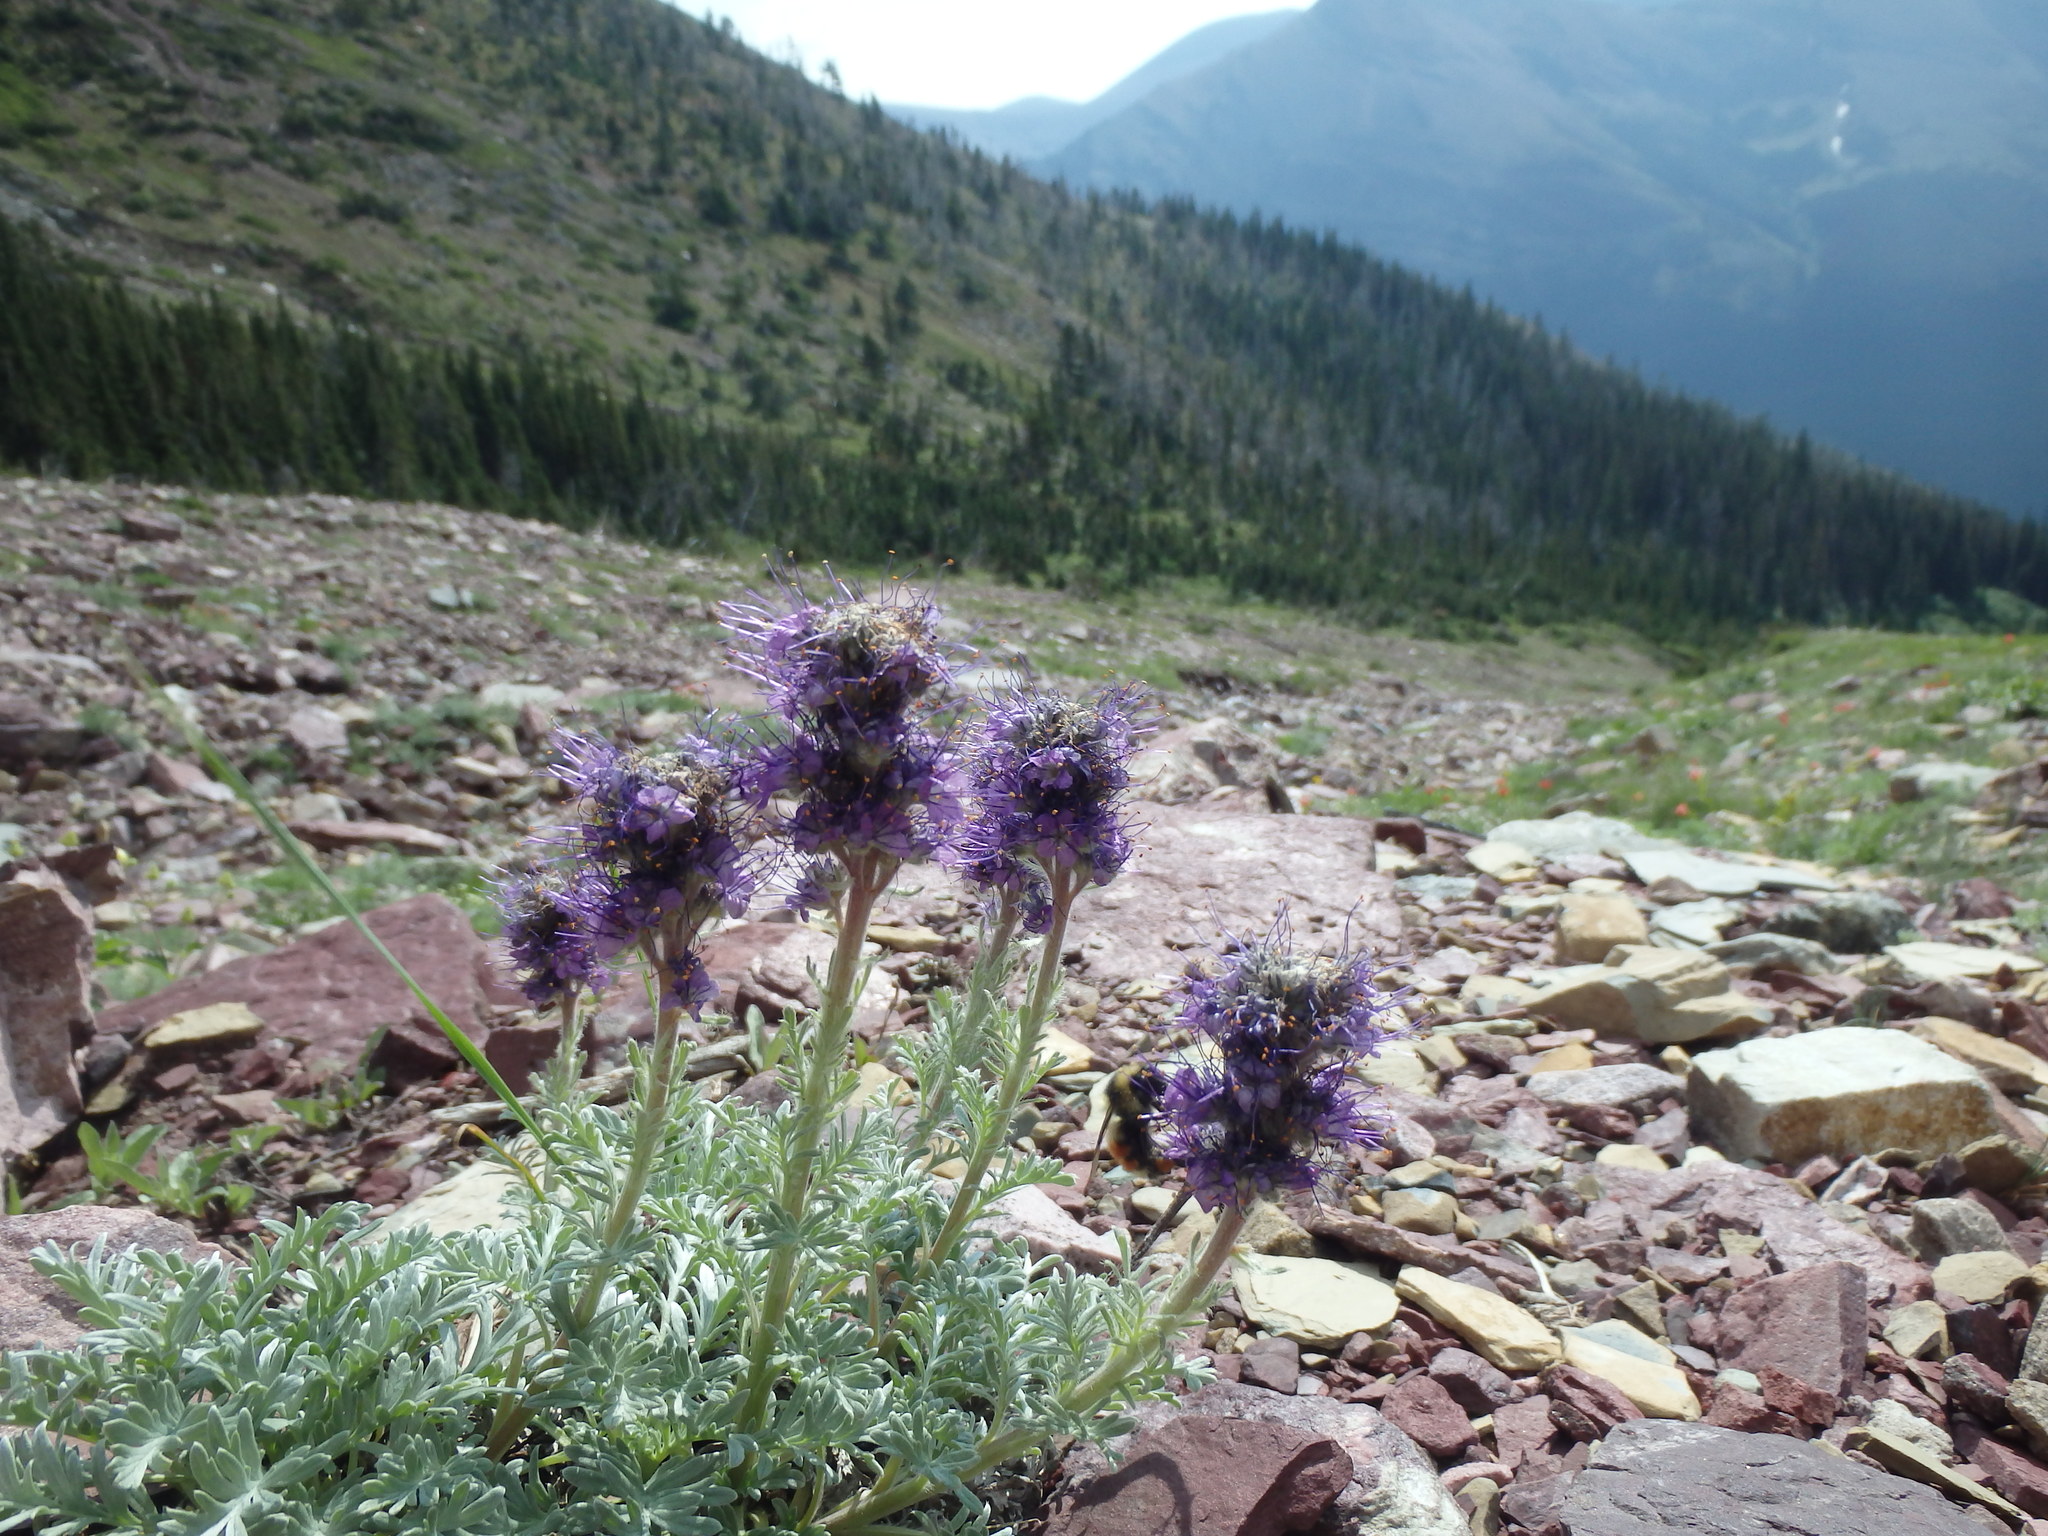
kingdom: Plantae
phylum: Tracheophyta
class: Magnoliopsida
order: Boraginales
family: Hydrophyllaceae
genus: Phacelia
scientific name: Phacelia sericea
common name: Silky phacelia
